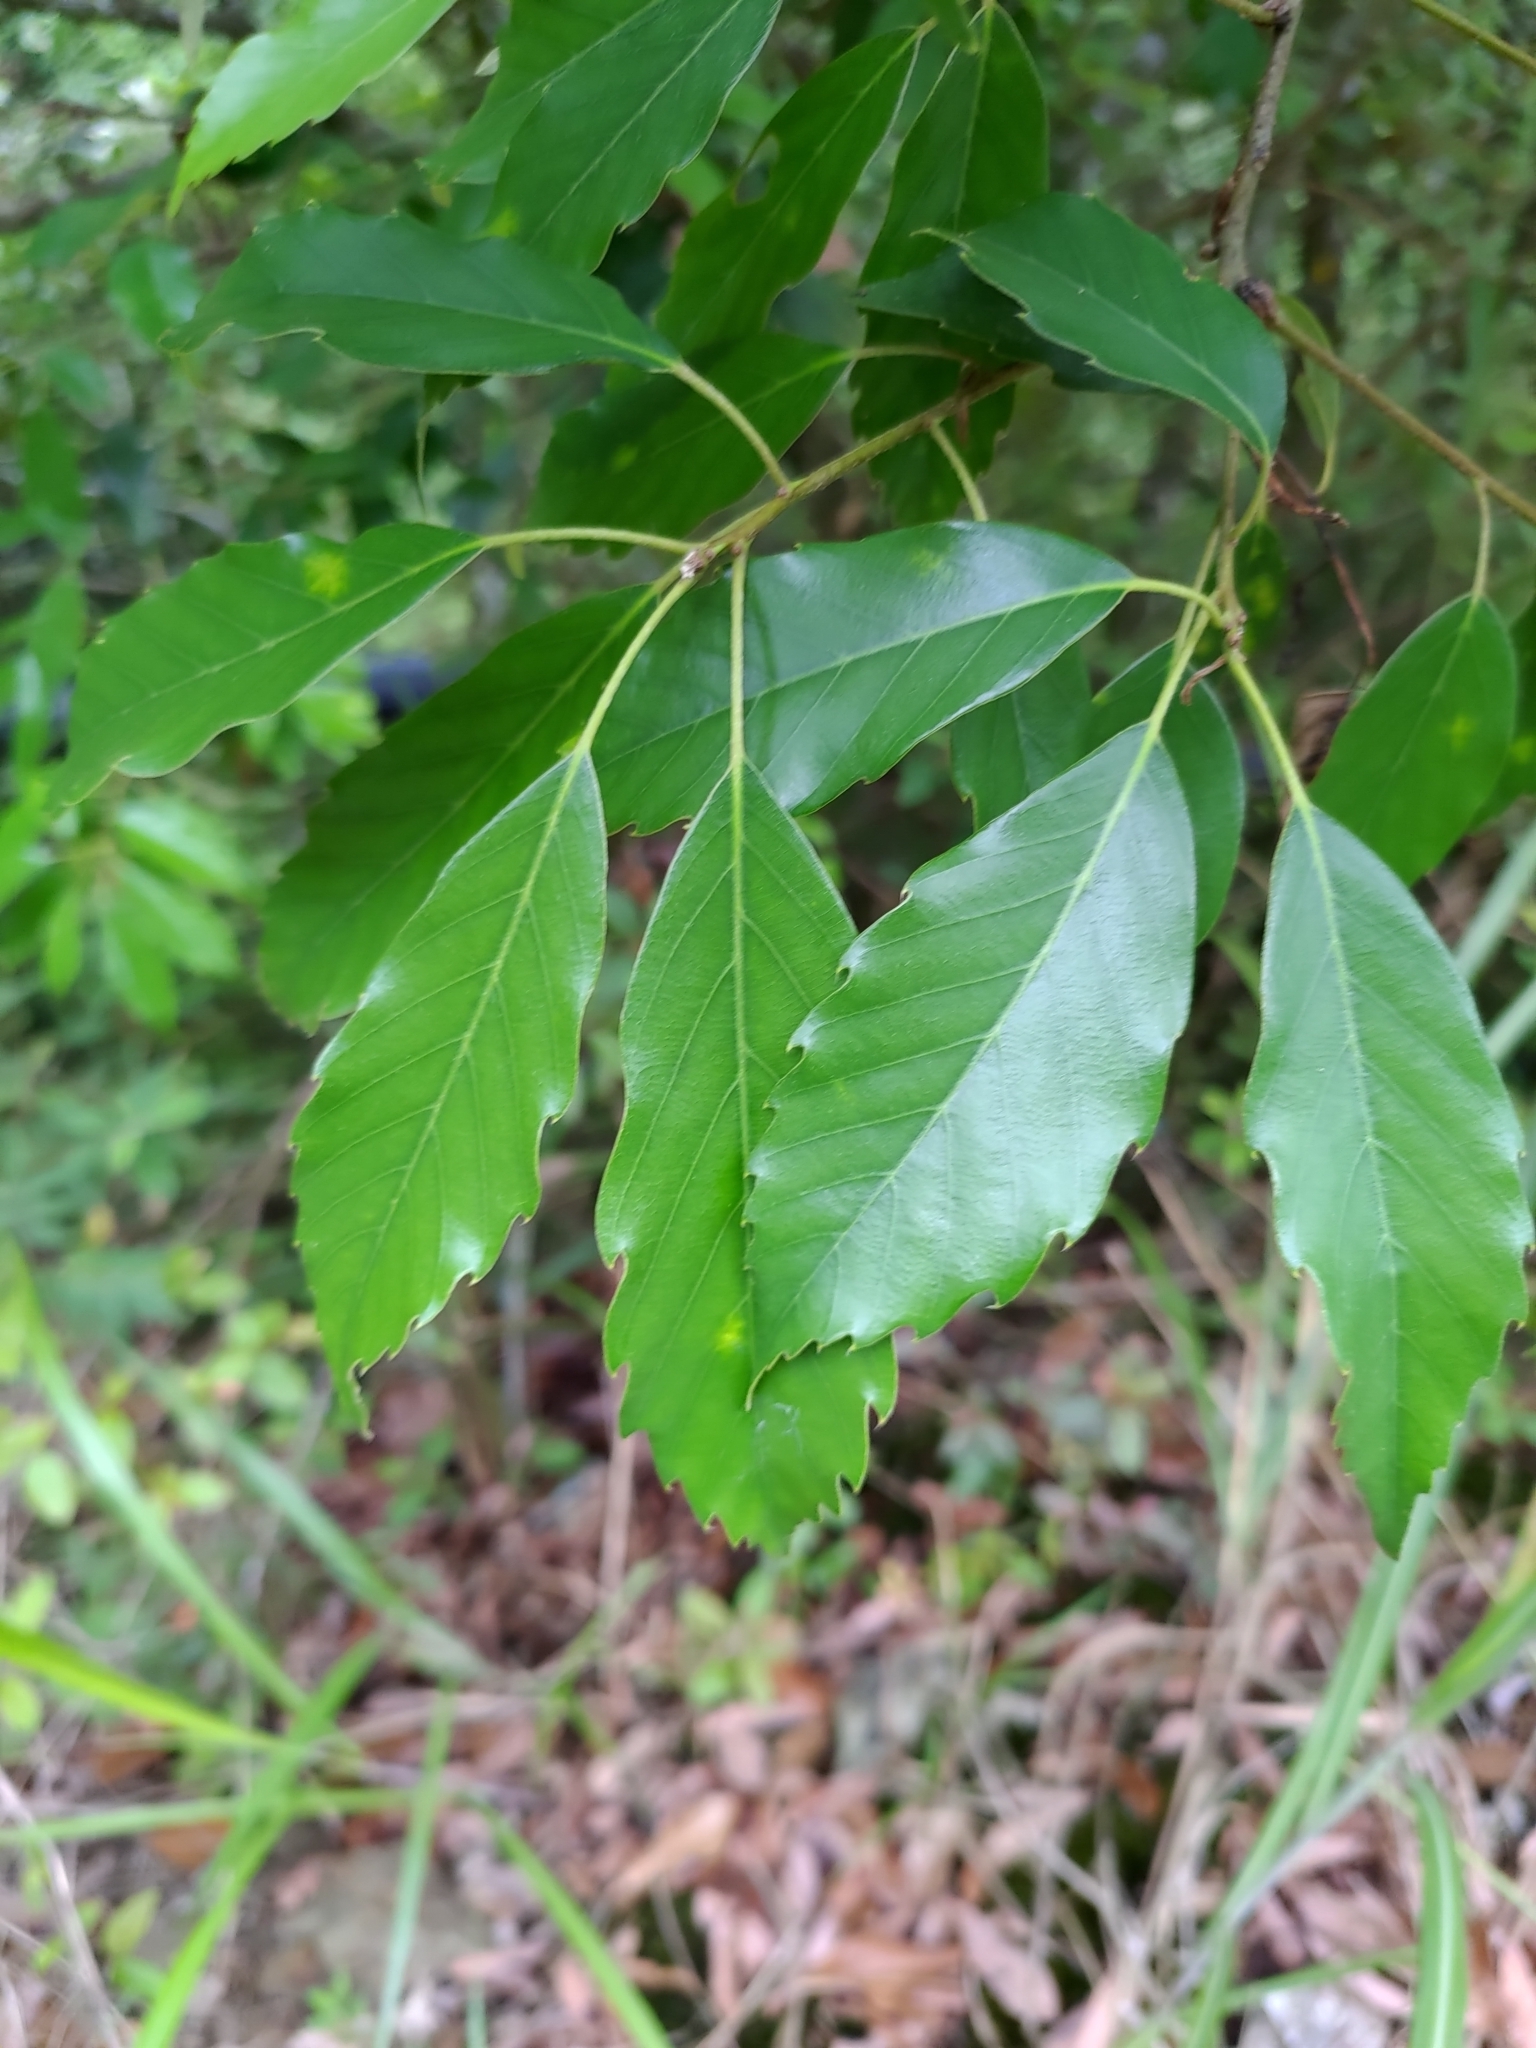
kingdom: Plantae
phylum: Tracheophyta
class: Magnoliopsida
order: Fagales
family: Fagaceae
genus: Quercus
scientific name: Quercus glauca
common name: Ring-cup oak
